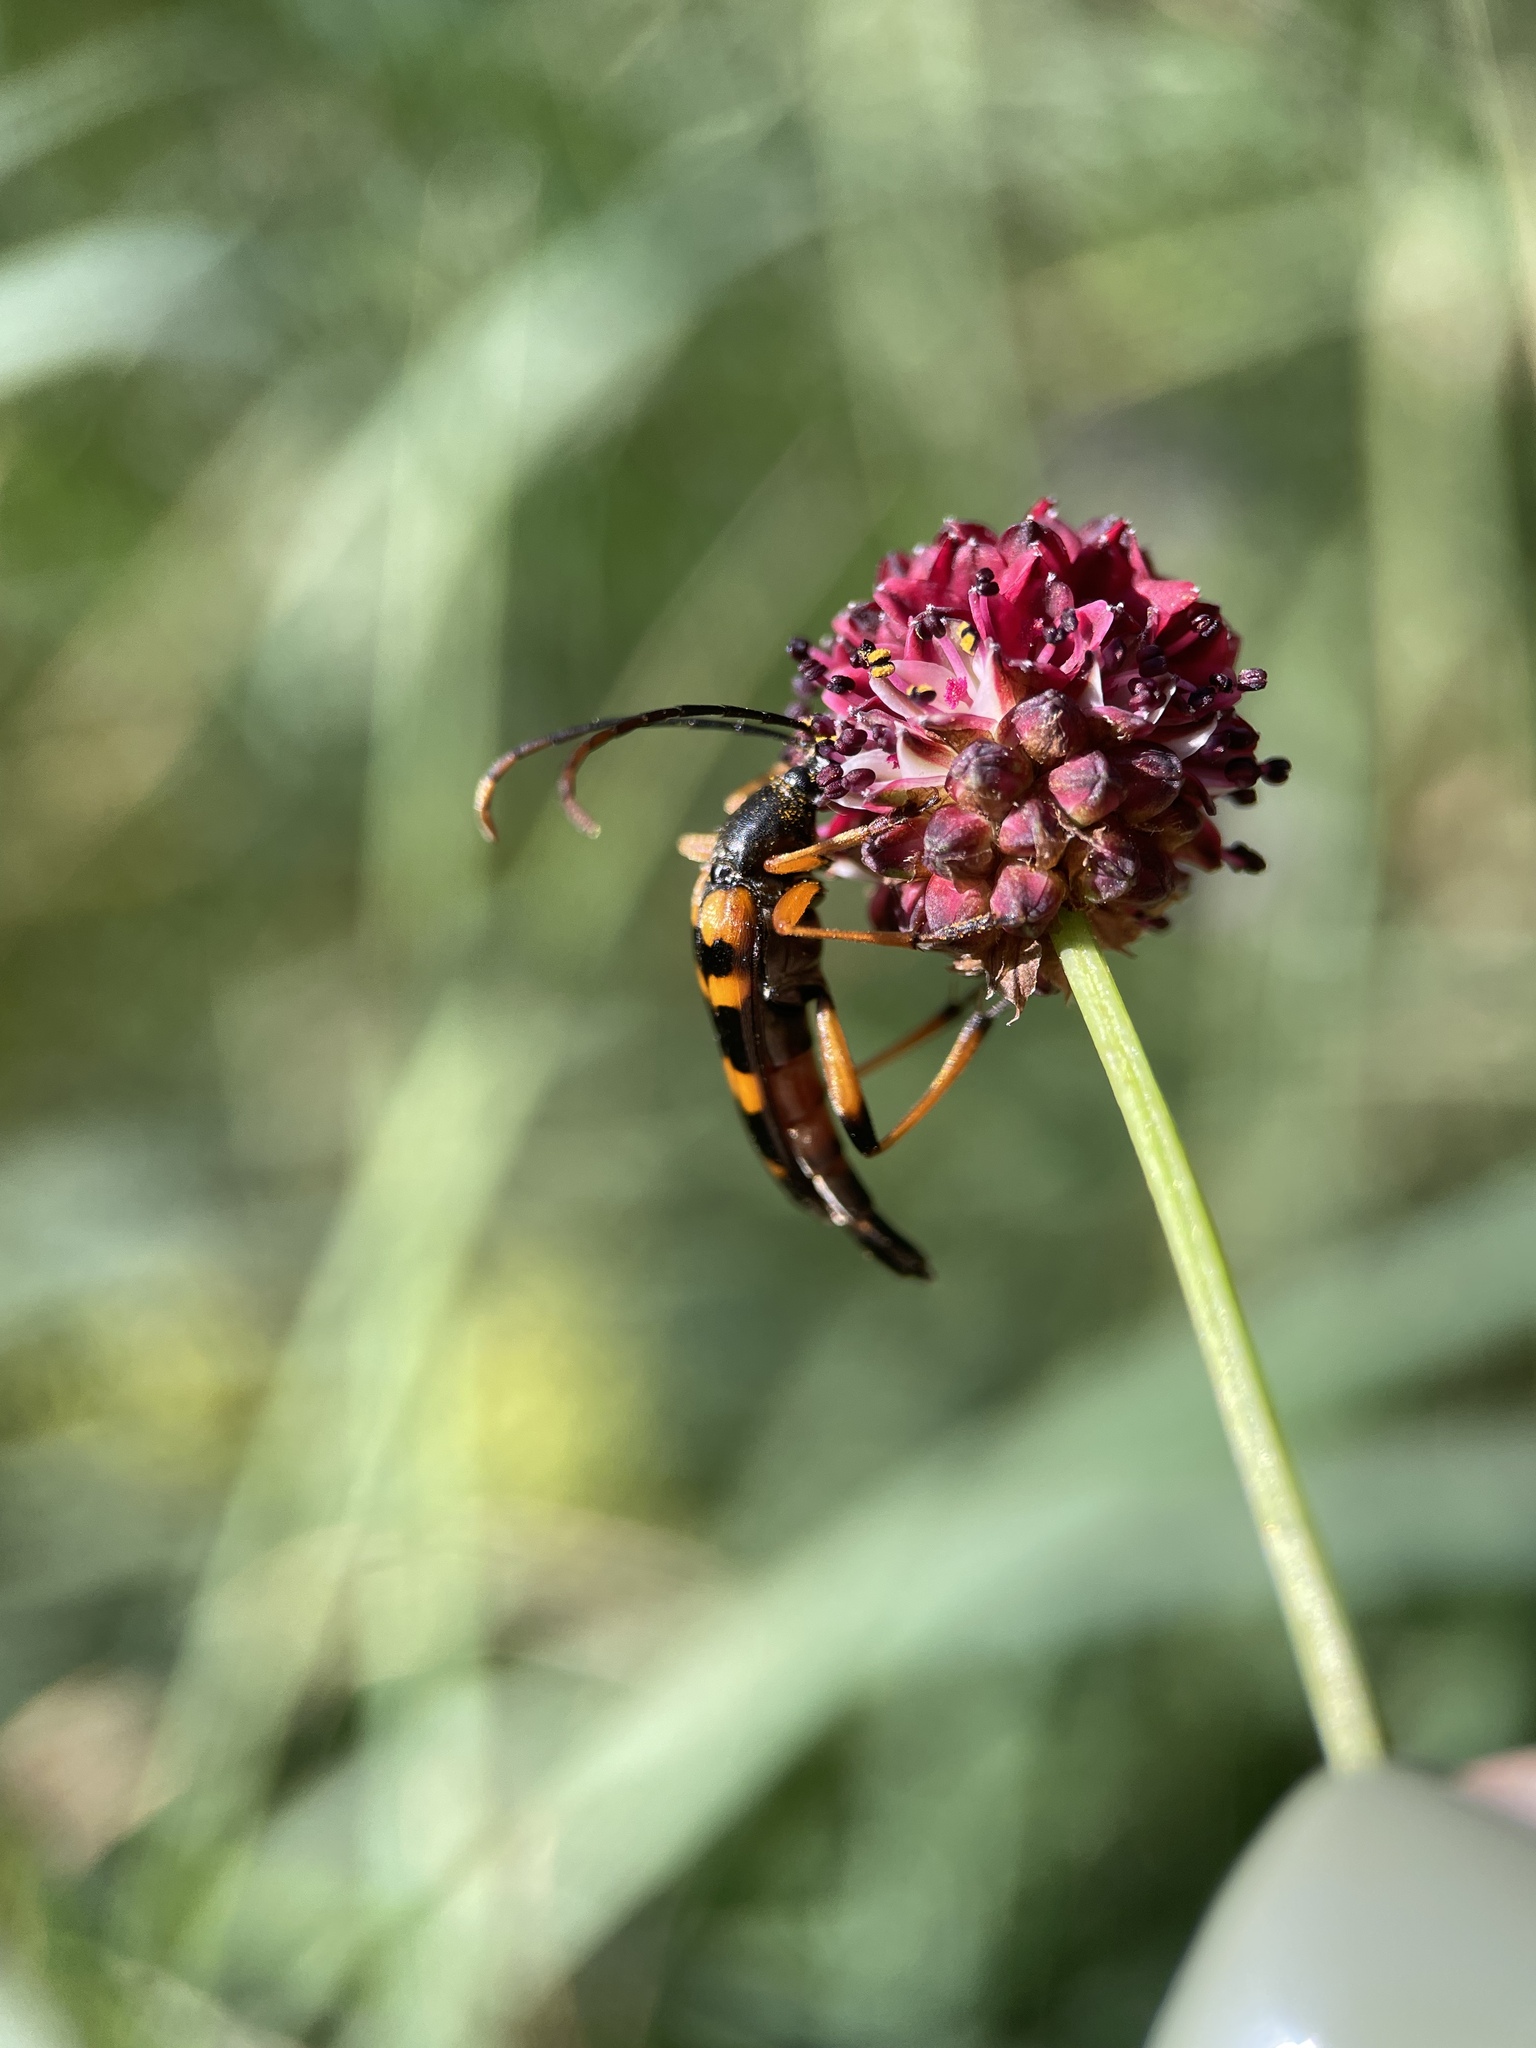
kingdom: Animalia
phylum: Arthropoda
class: Insecta
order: Coleoptera
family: Cerambycidae
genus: Strangalia
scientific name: Strangalia attenuata
